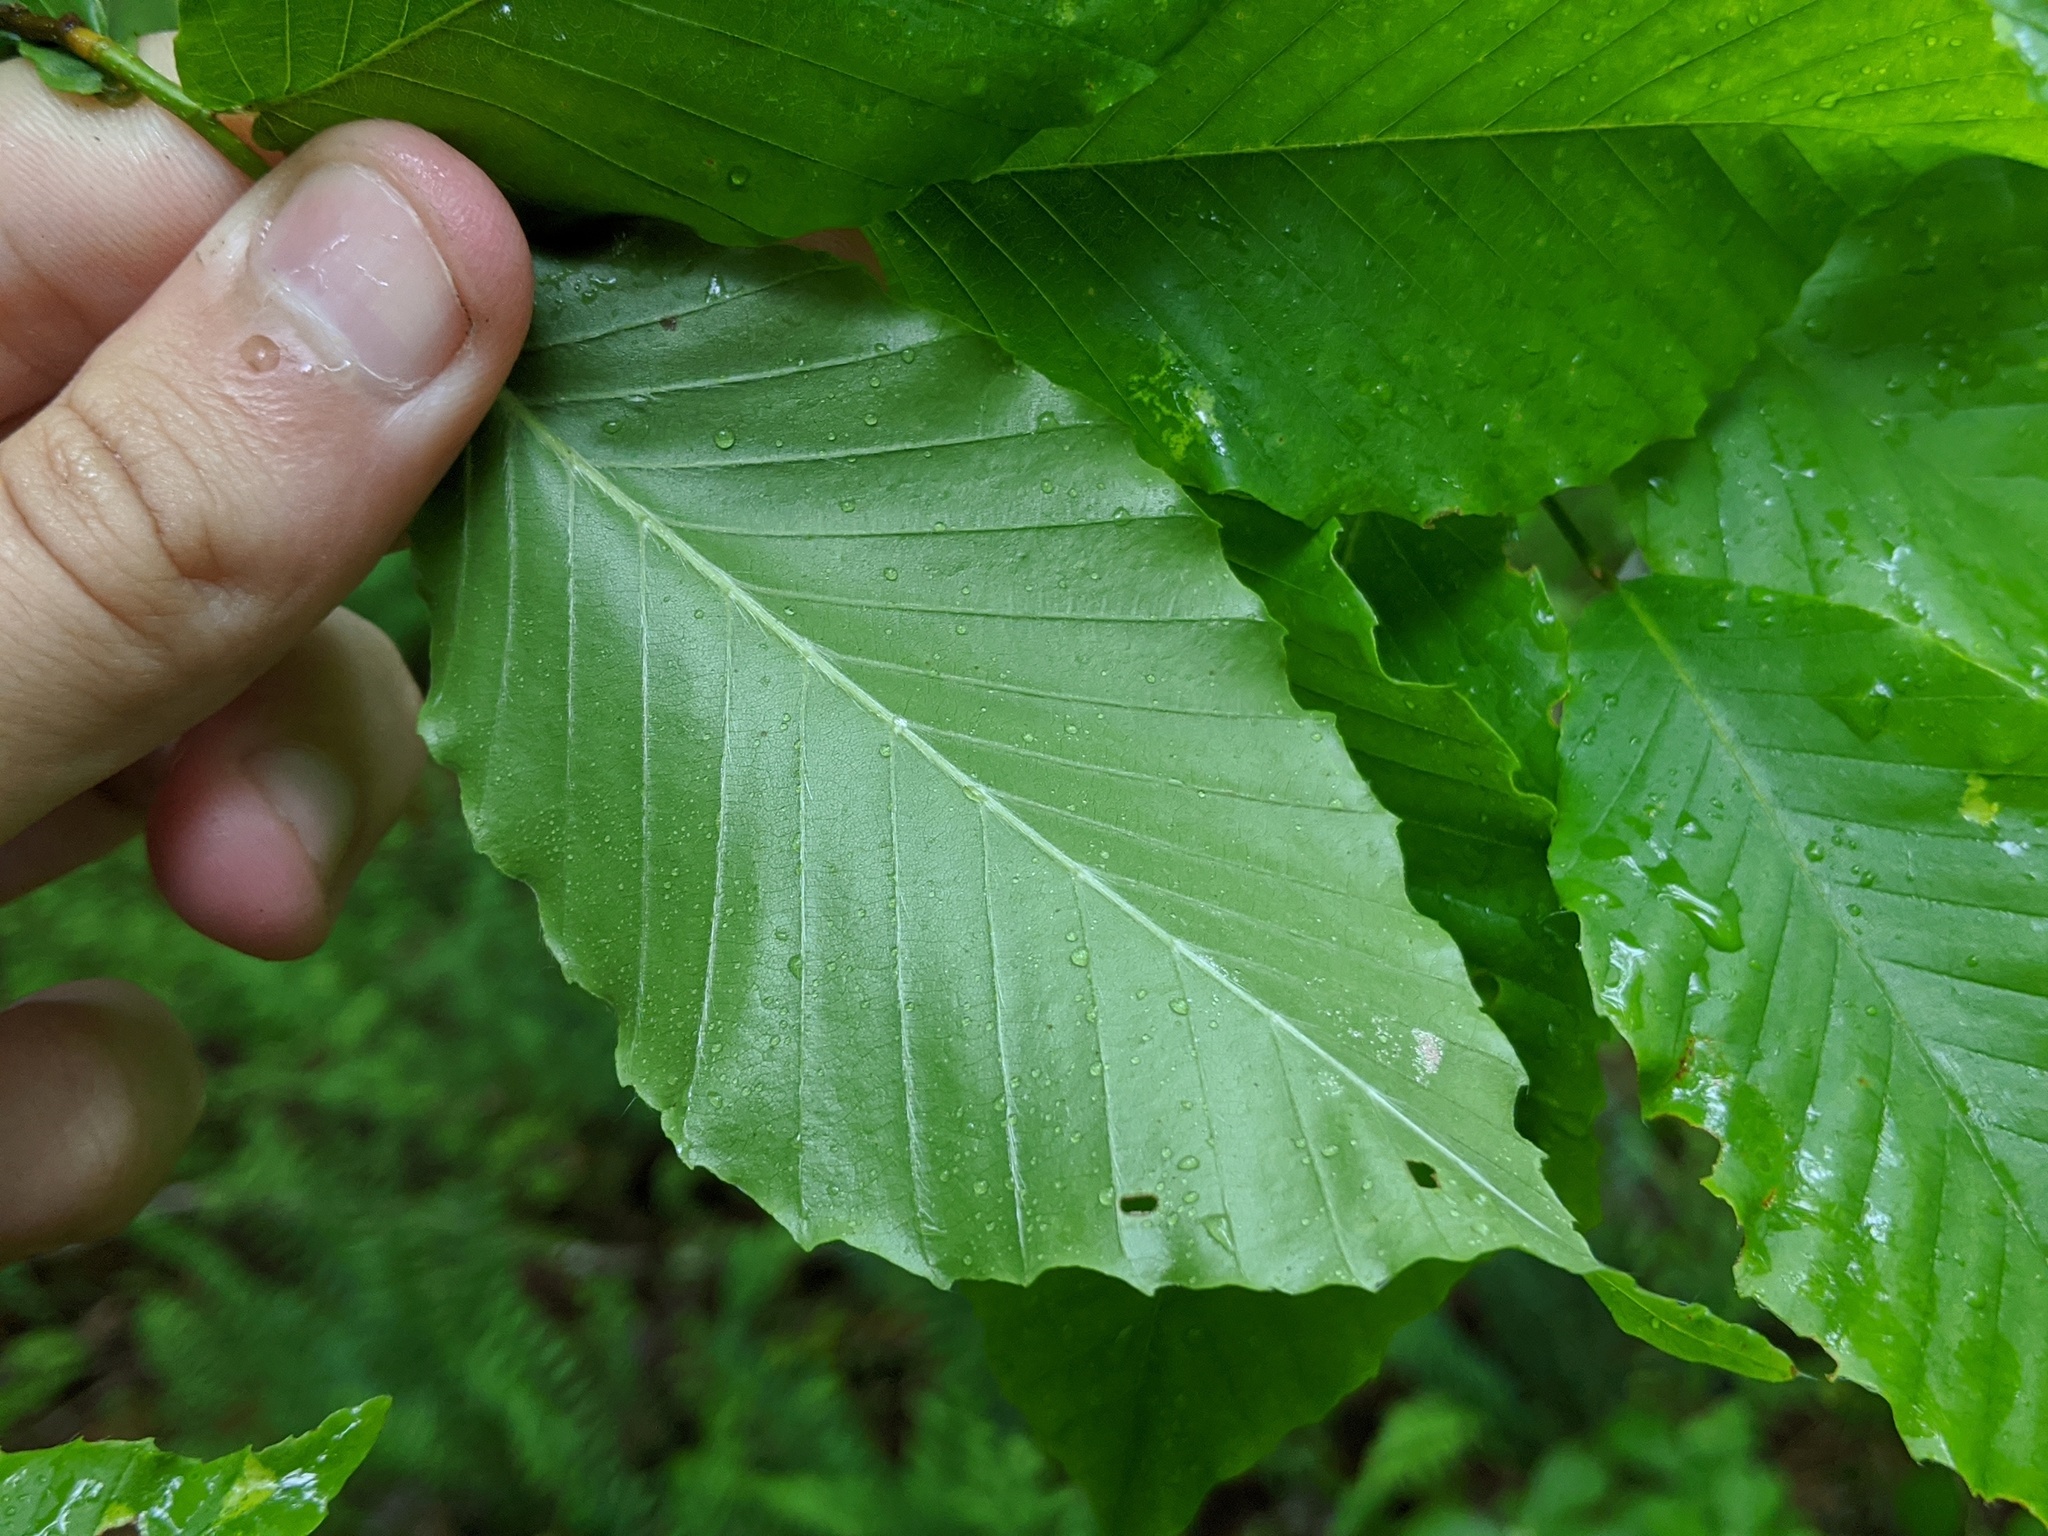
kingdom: Plantae
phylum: Tracheophyta
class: Magnoliopsida
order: Fagales
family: Fagaceae
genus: Fagus
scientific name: Fagus grandifolia
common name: American beech
